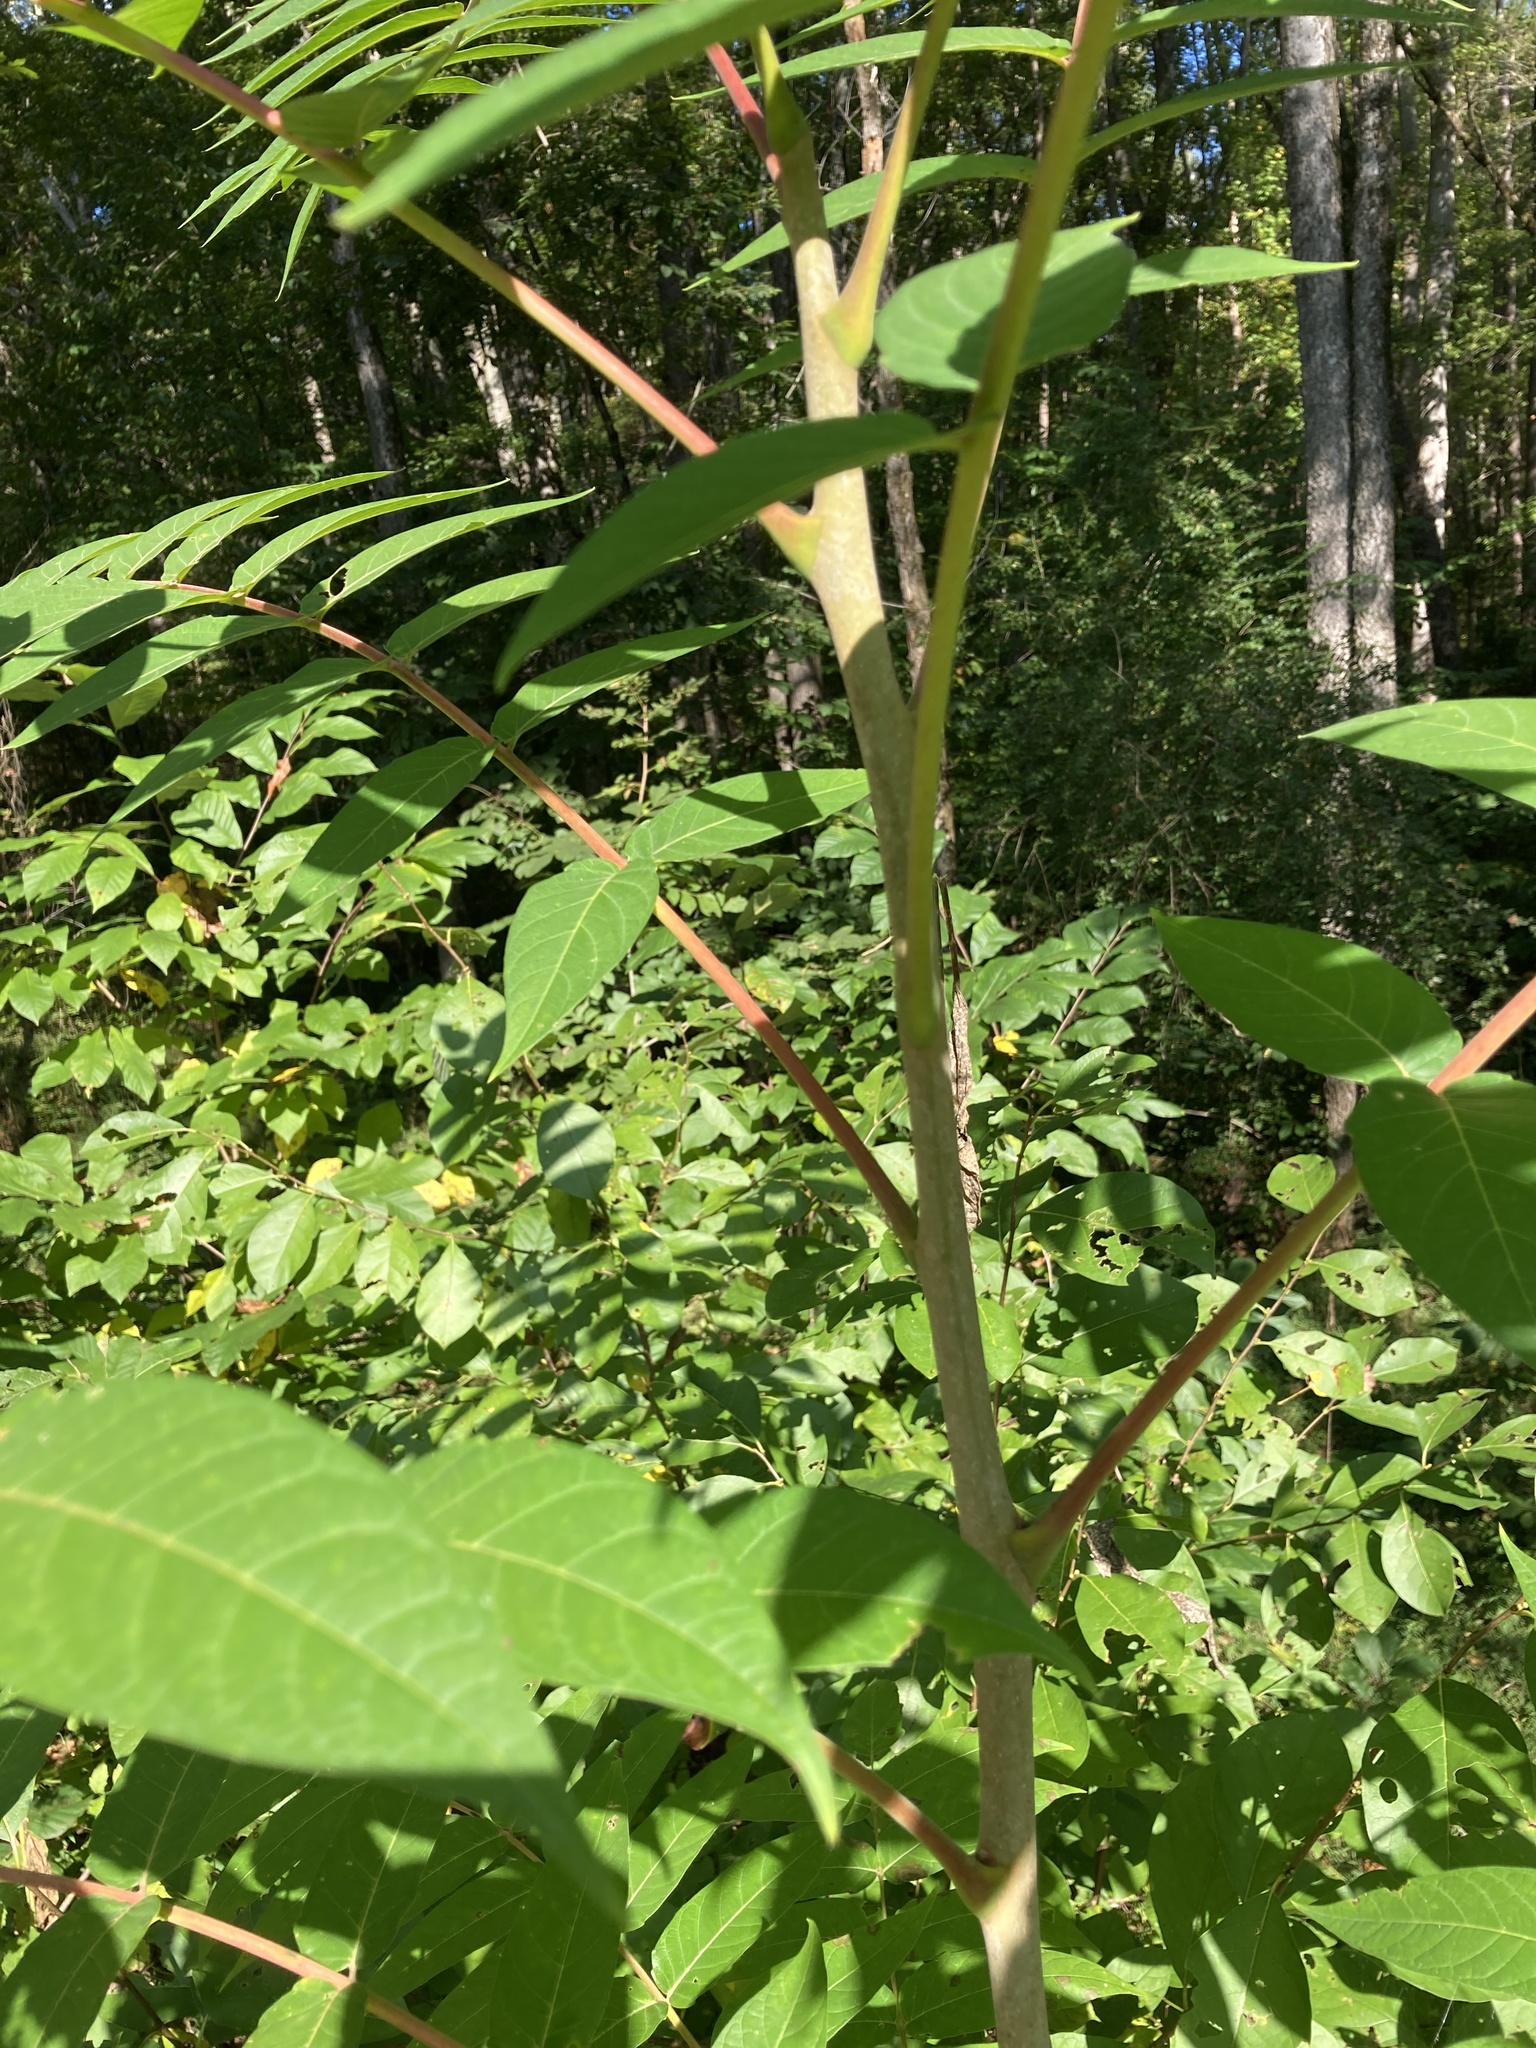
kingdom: Plantae
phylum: Tracheophyta
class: Magnoliopsida
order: Sapindales
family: Simaroubaceae
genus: Ailanthus
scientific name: Ailanthus altissima
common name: Tree-of-heaven
